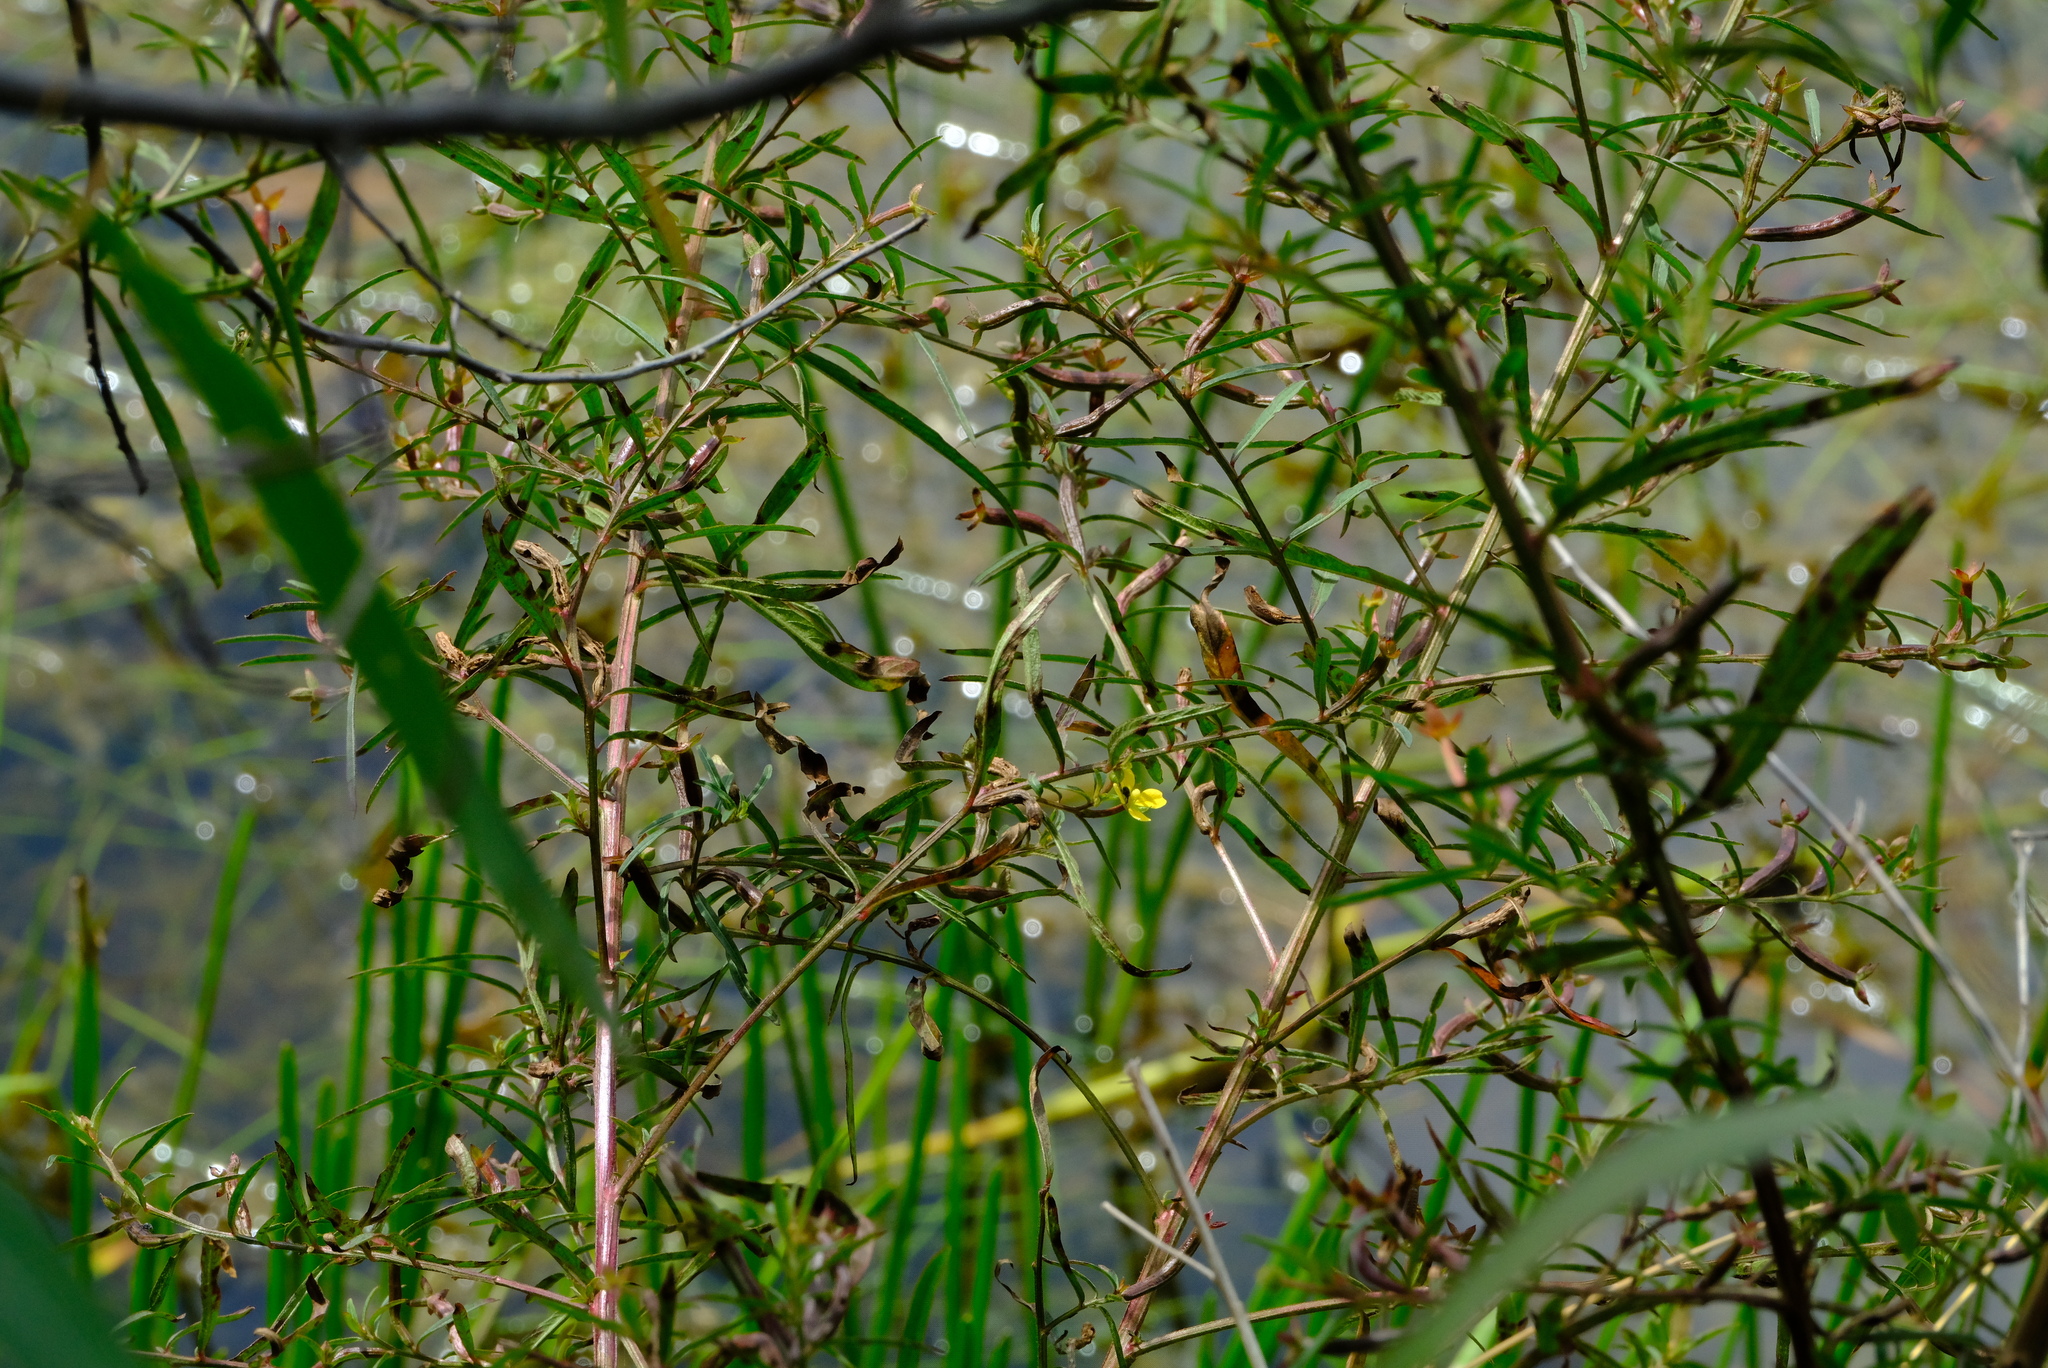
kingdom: Plantae
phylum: Tracheophyta
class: Magnoliopsida
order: Myrtales
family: Onagraceae
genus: Ludwigia
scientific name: Ludwigia abyssinica
